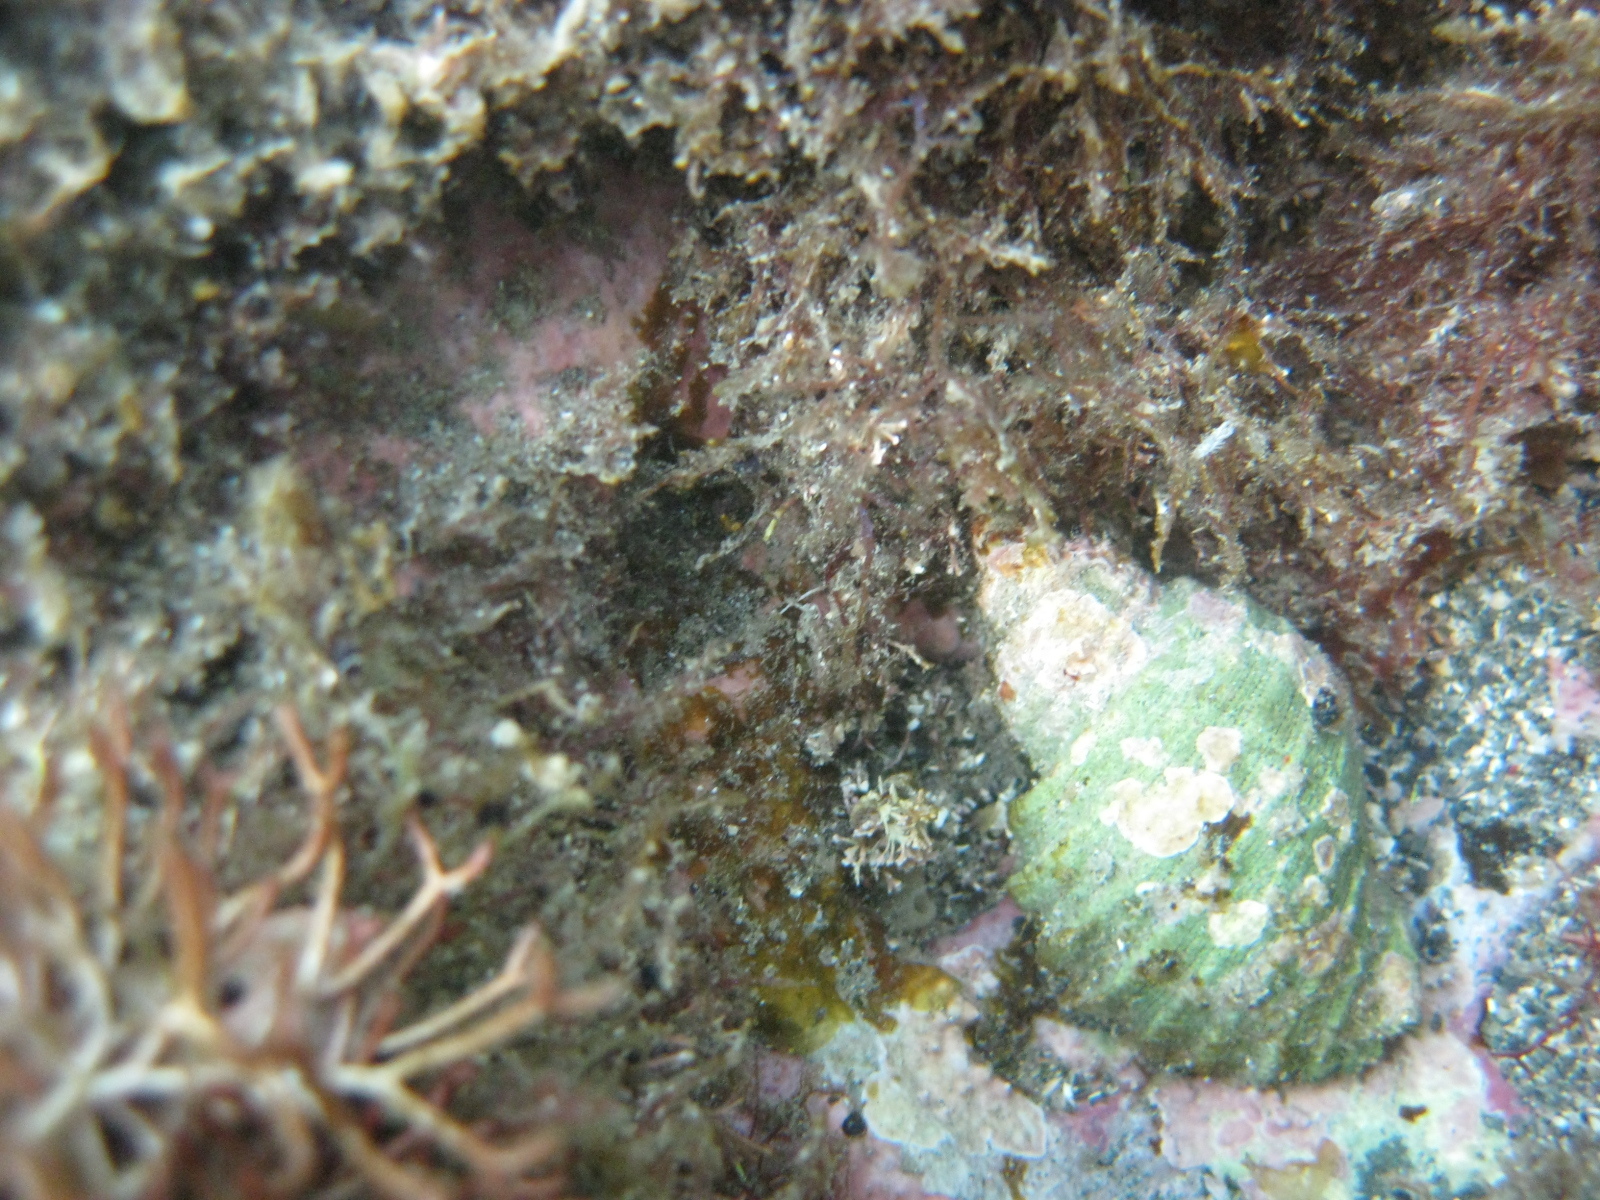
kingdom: Animalia
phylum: Mollusca
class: Gastropoda
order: Neogastropoda
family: Muricidae
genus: Dicathais
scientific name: Dicathais orbita
